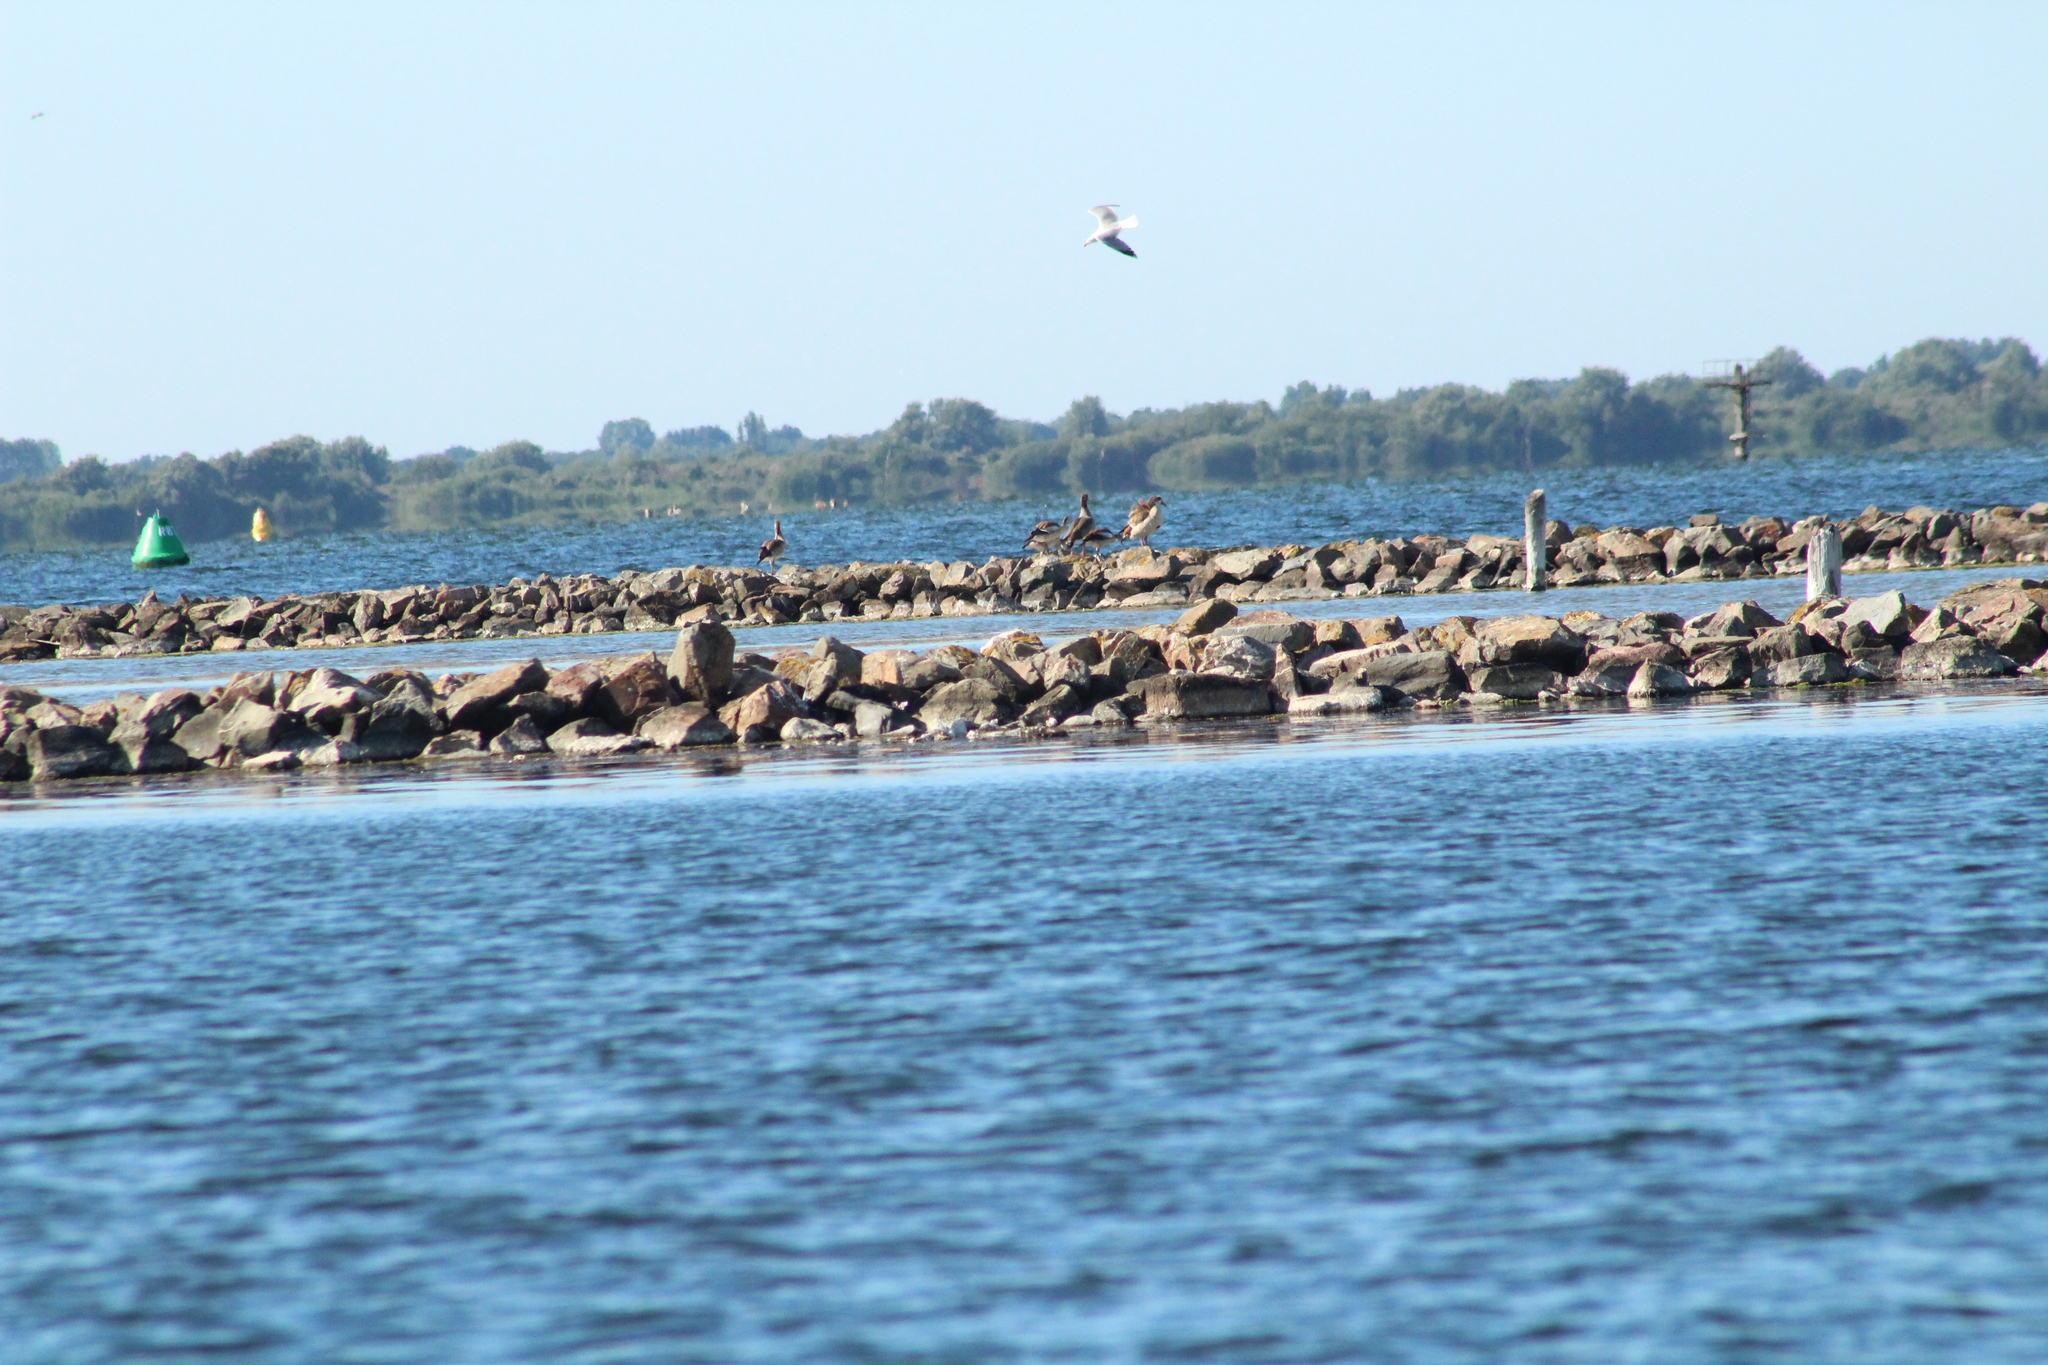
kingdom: Animalia
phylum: Chordata
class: Aves
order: Anseriformes
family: Anatidae
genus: Alopochen
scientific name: Alopochen aegyptiaca
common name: Egyptian goose
